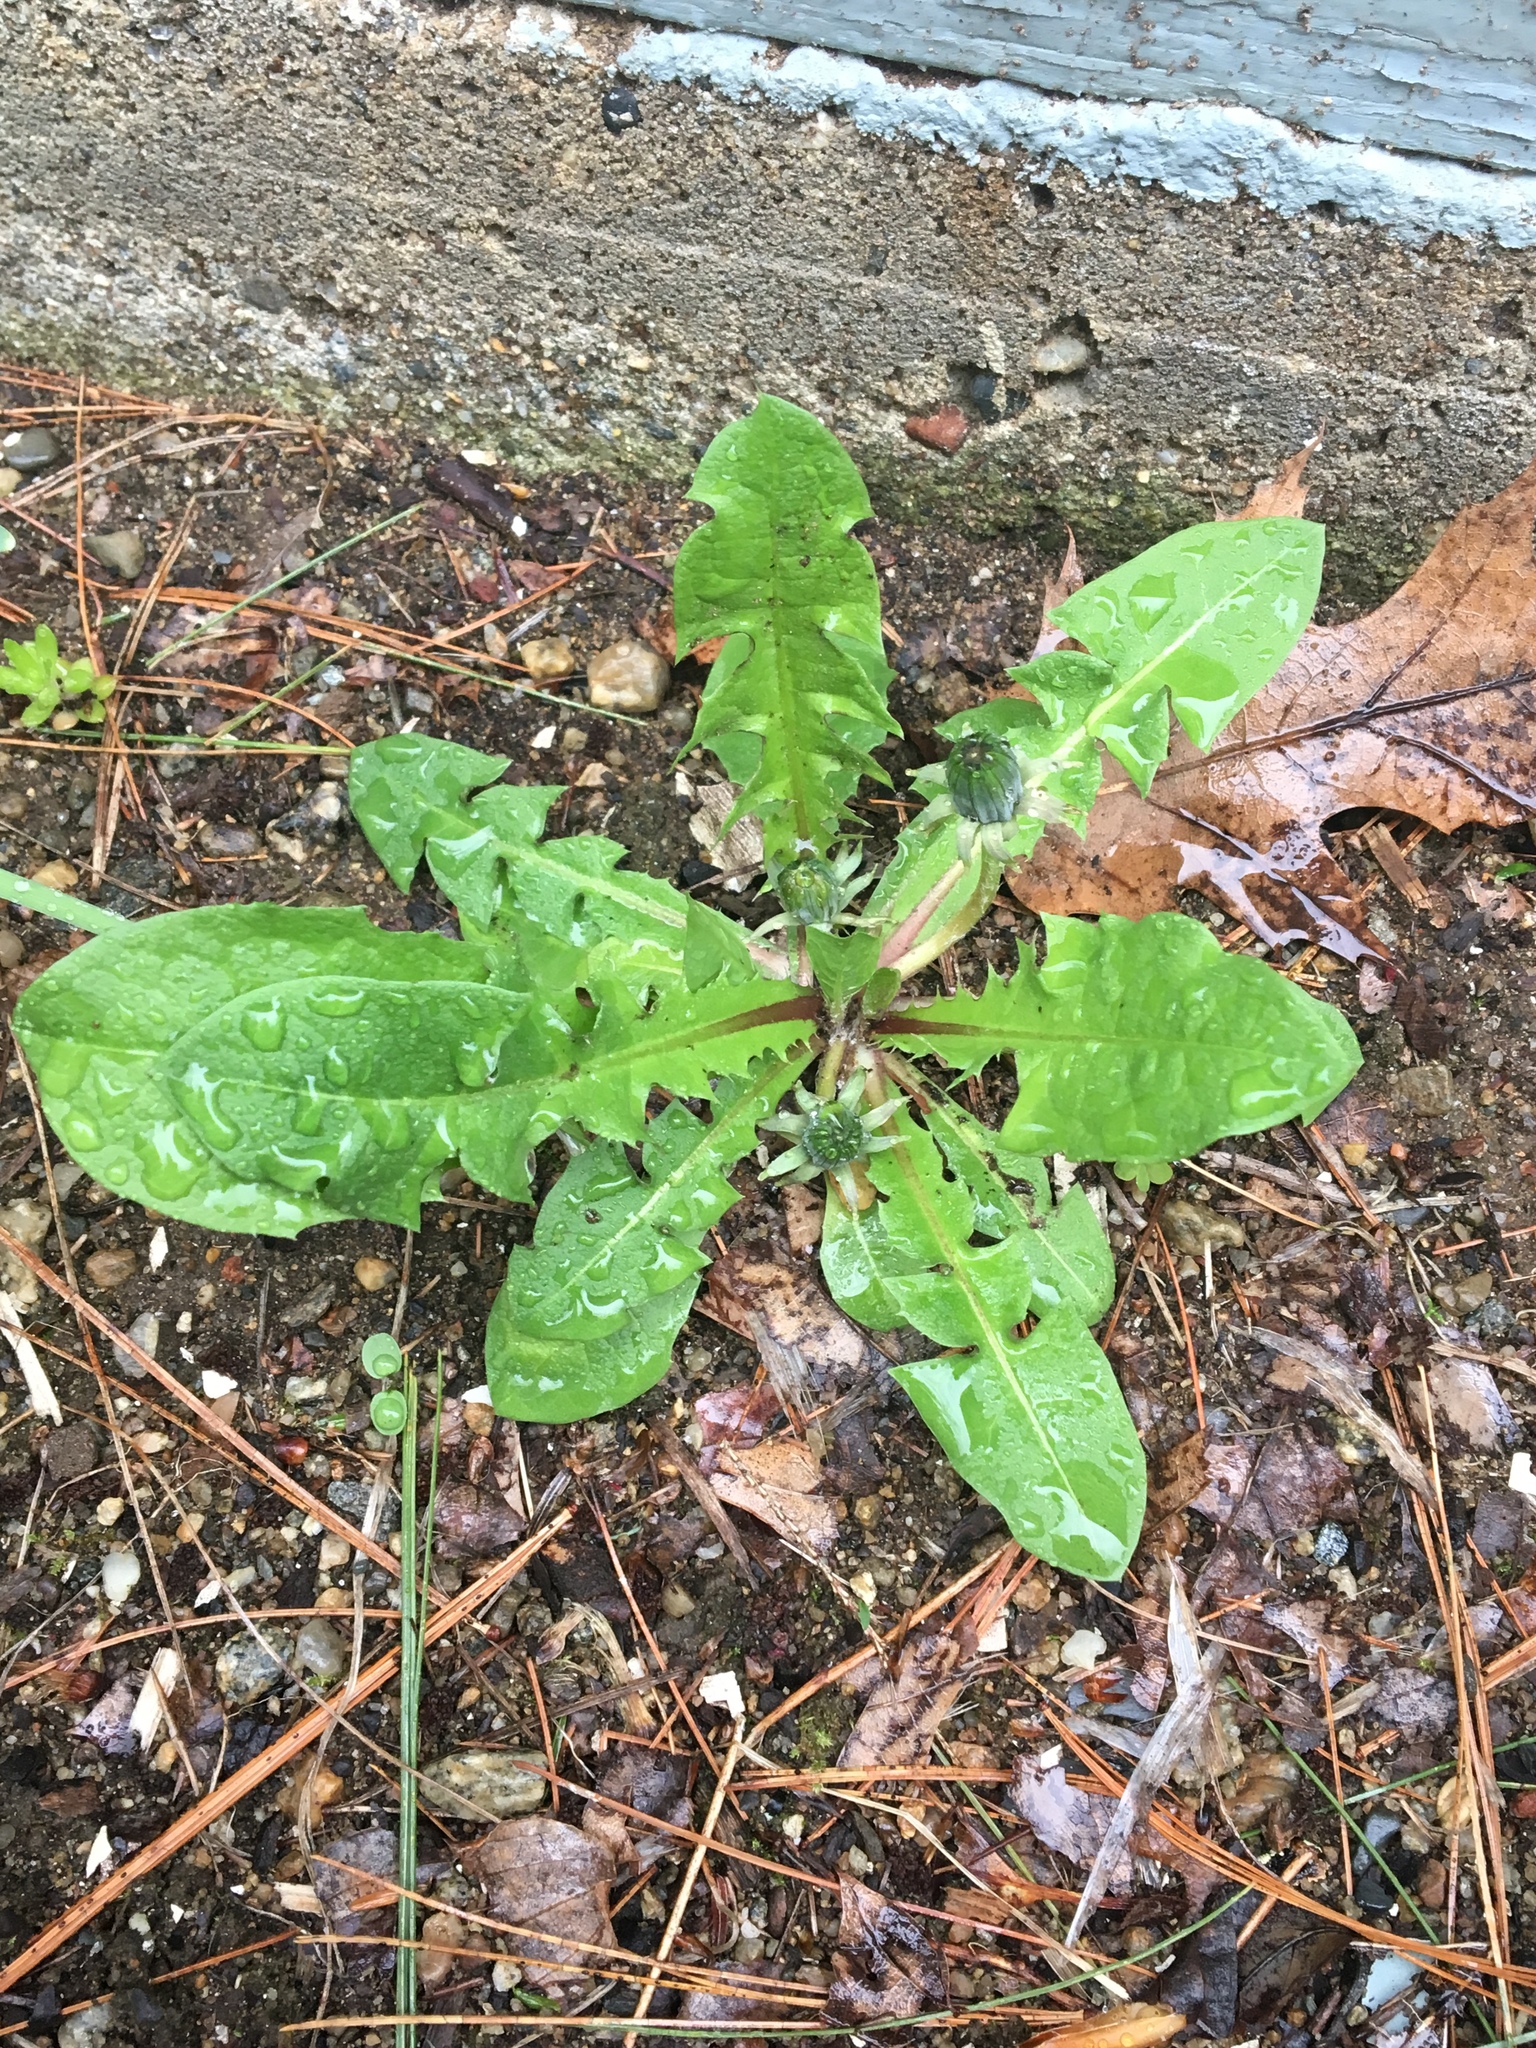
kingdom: Plantae
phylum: Tracheophyta
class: Magnoliopsida
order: Asterales
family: Asteraceae
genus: Taraxacum
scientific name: Taraxacum officinale
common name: Common dandelion
